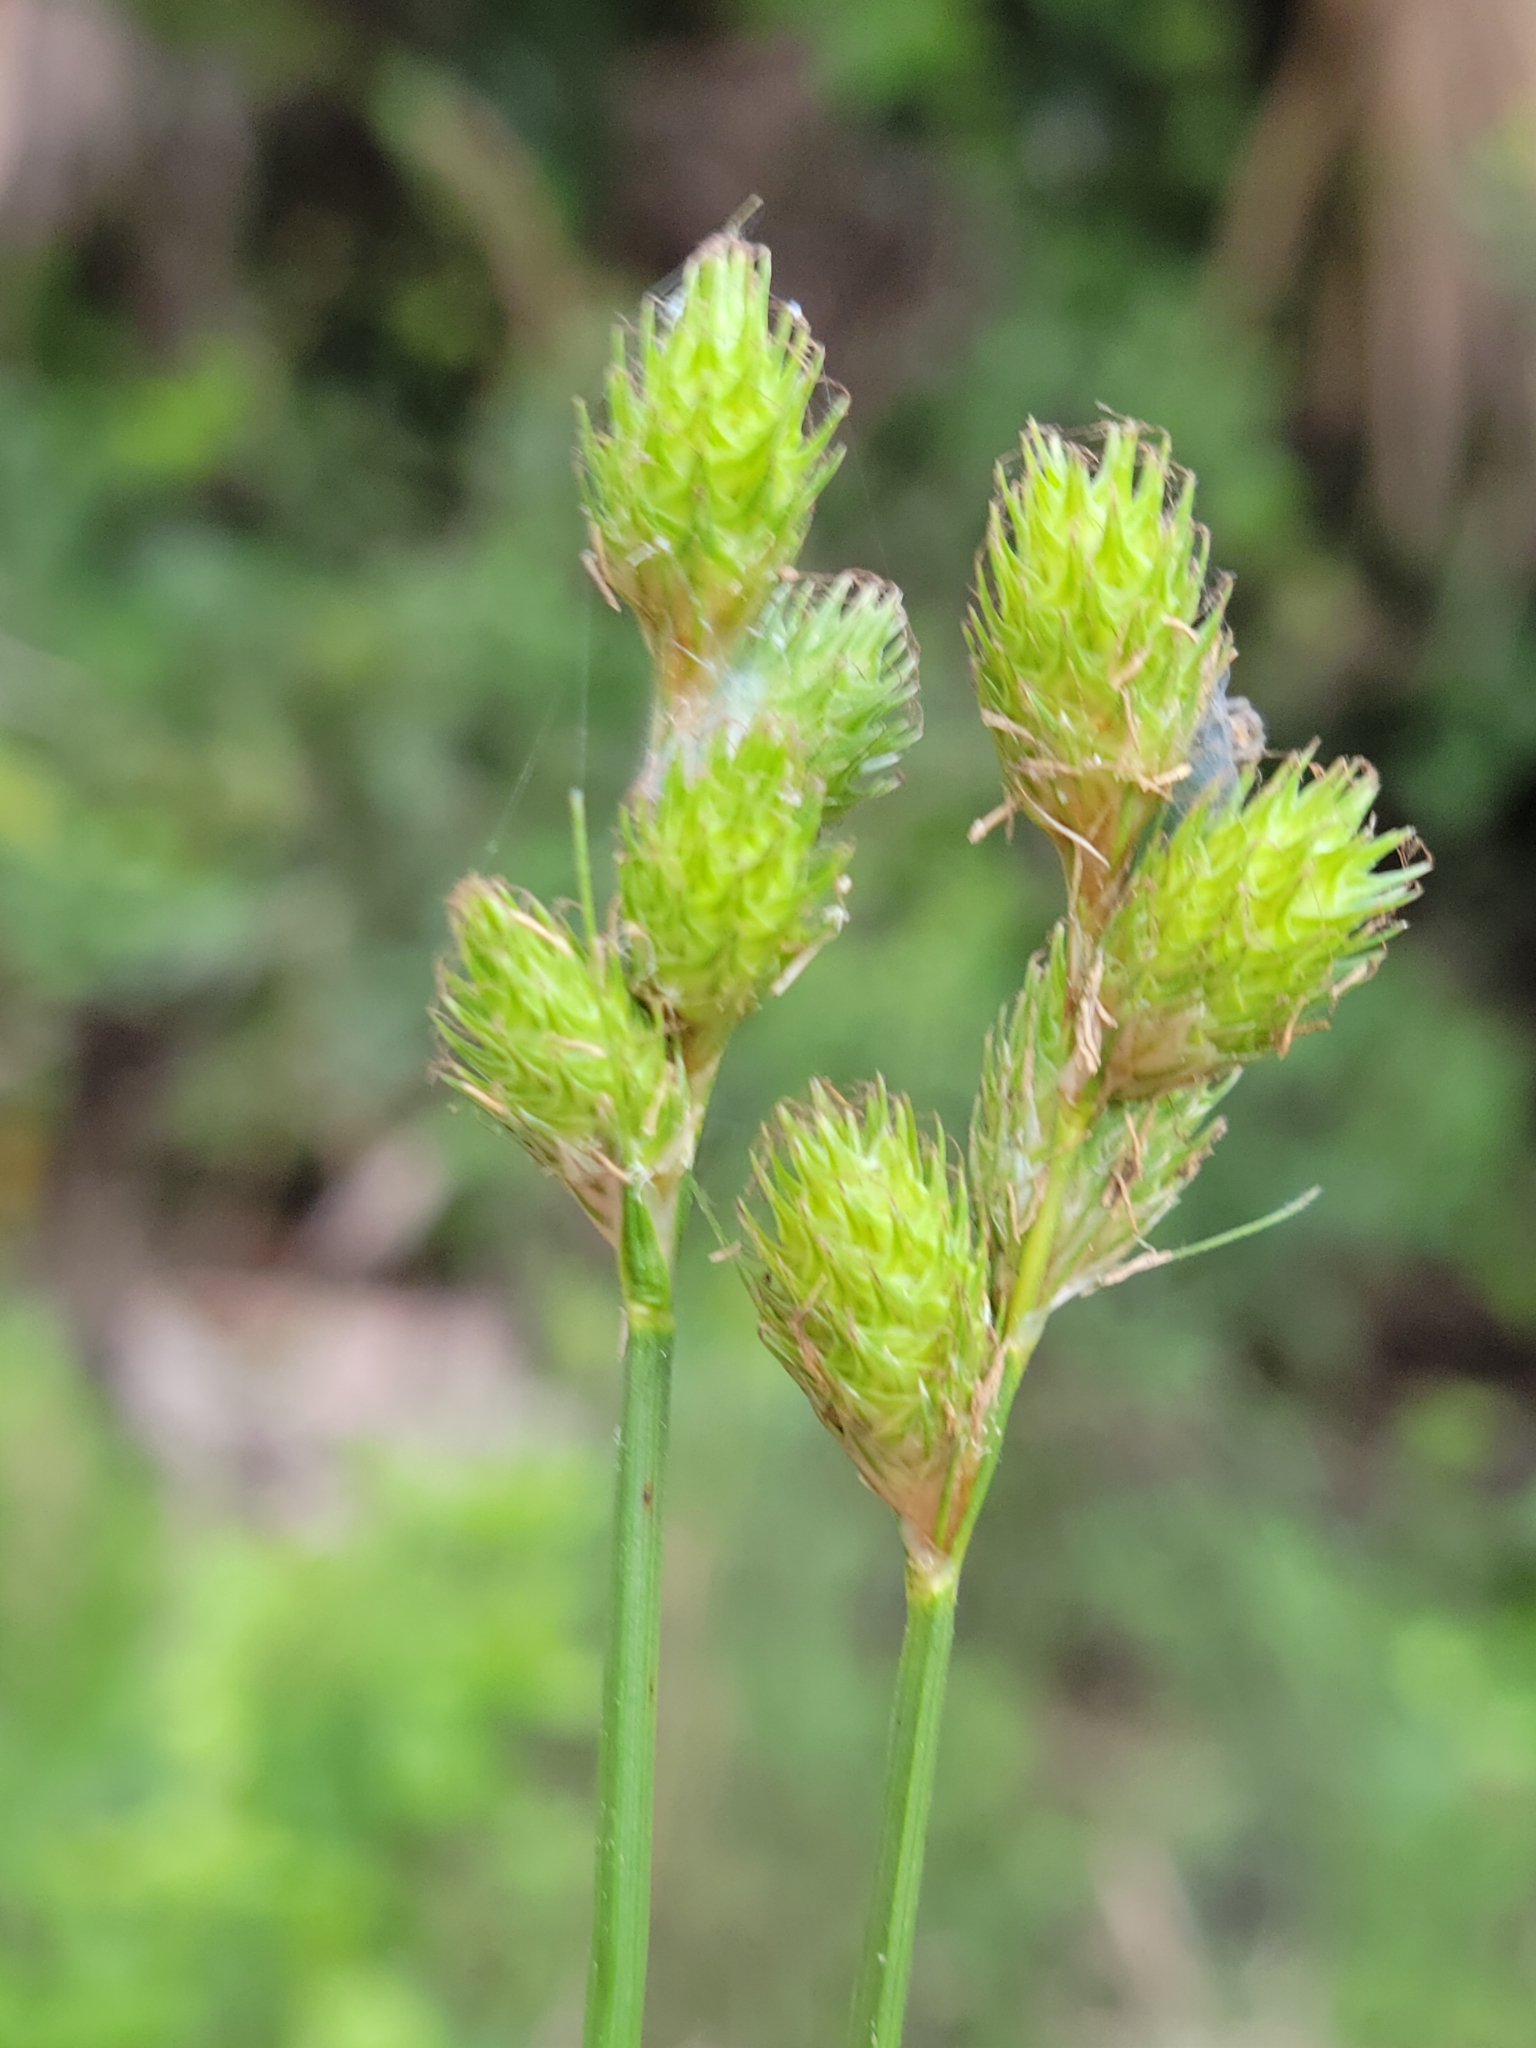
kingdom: Plantae
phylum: Tracheophyta
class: Liliopsida
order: Poales
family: Cyperaceae
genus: Carex
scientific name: Carex vexans
